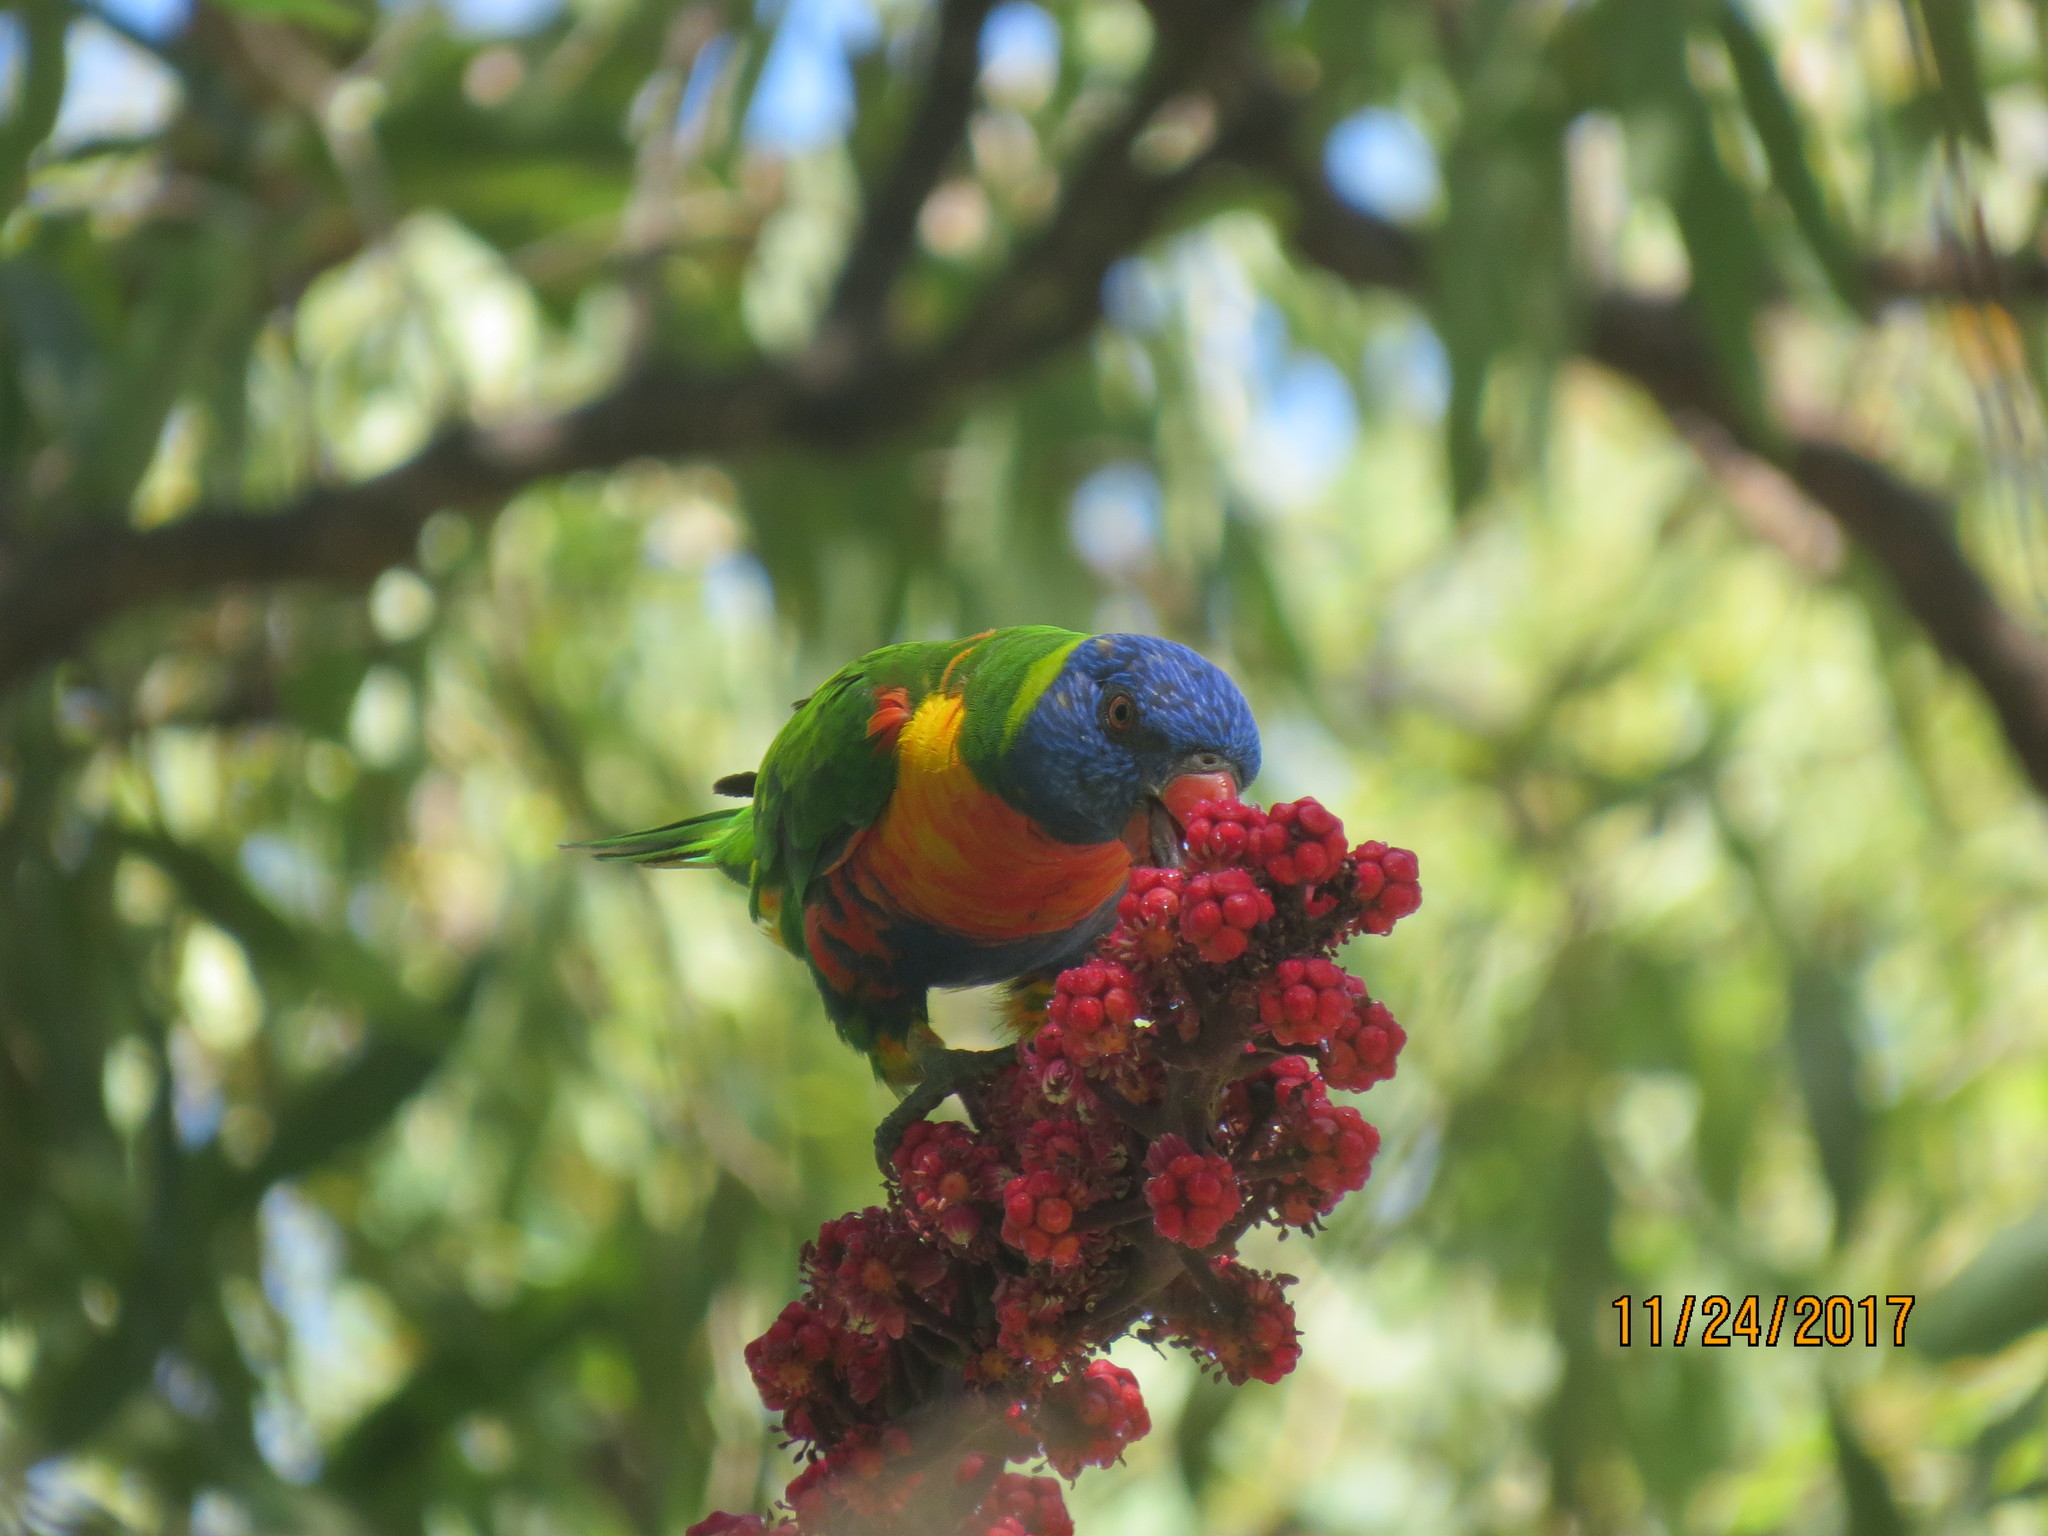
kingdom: Animalia
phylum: Chordata
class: Aves
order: Psittaciformes
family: Psittacidae
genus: Trichoglossus
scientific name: Trichoglossus haematodus
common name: Coconut lorikeet
